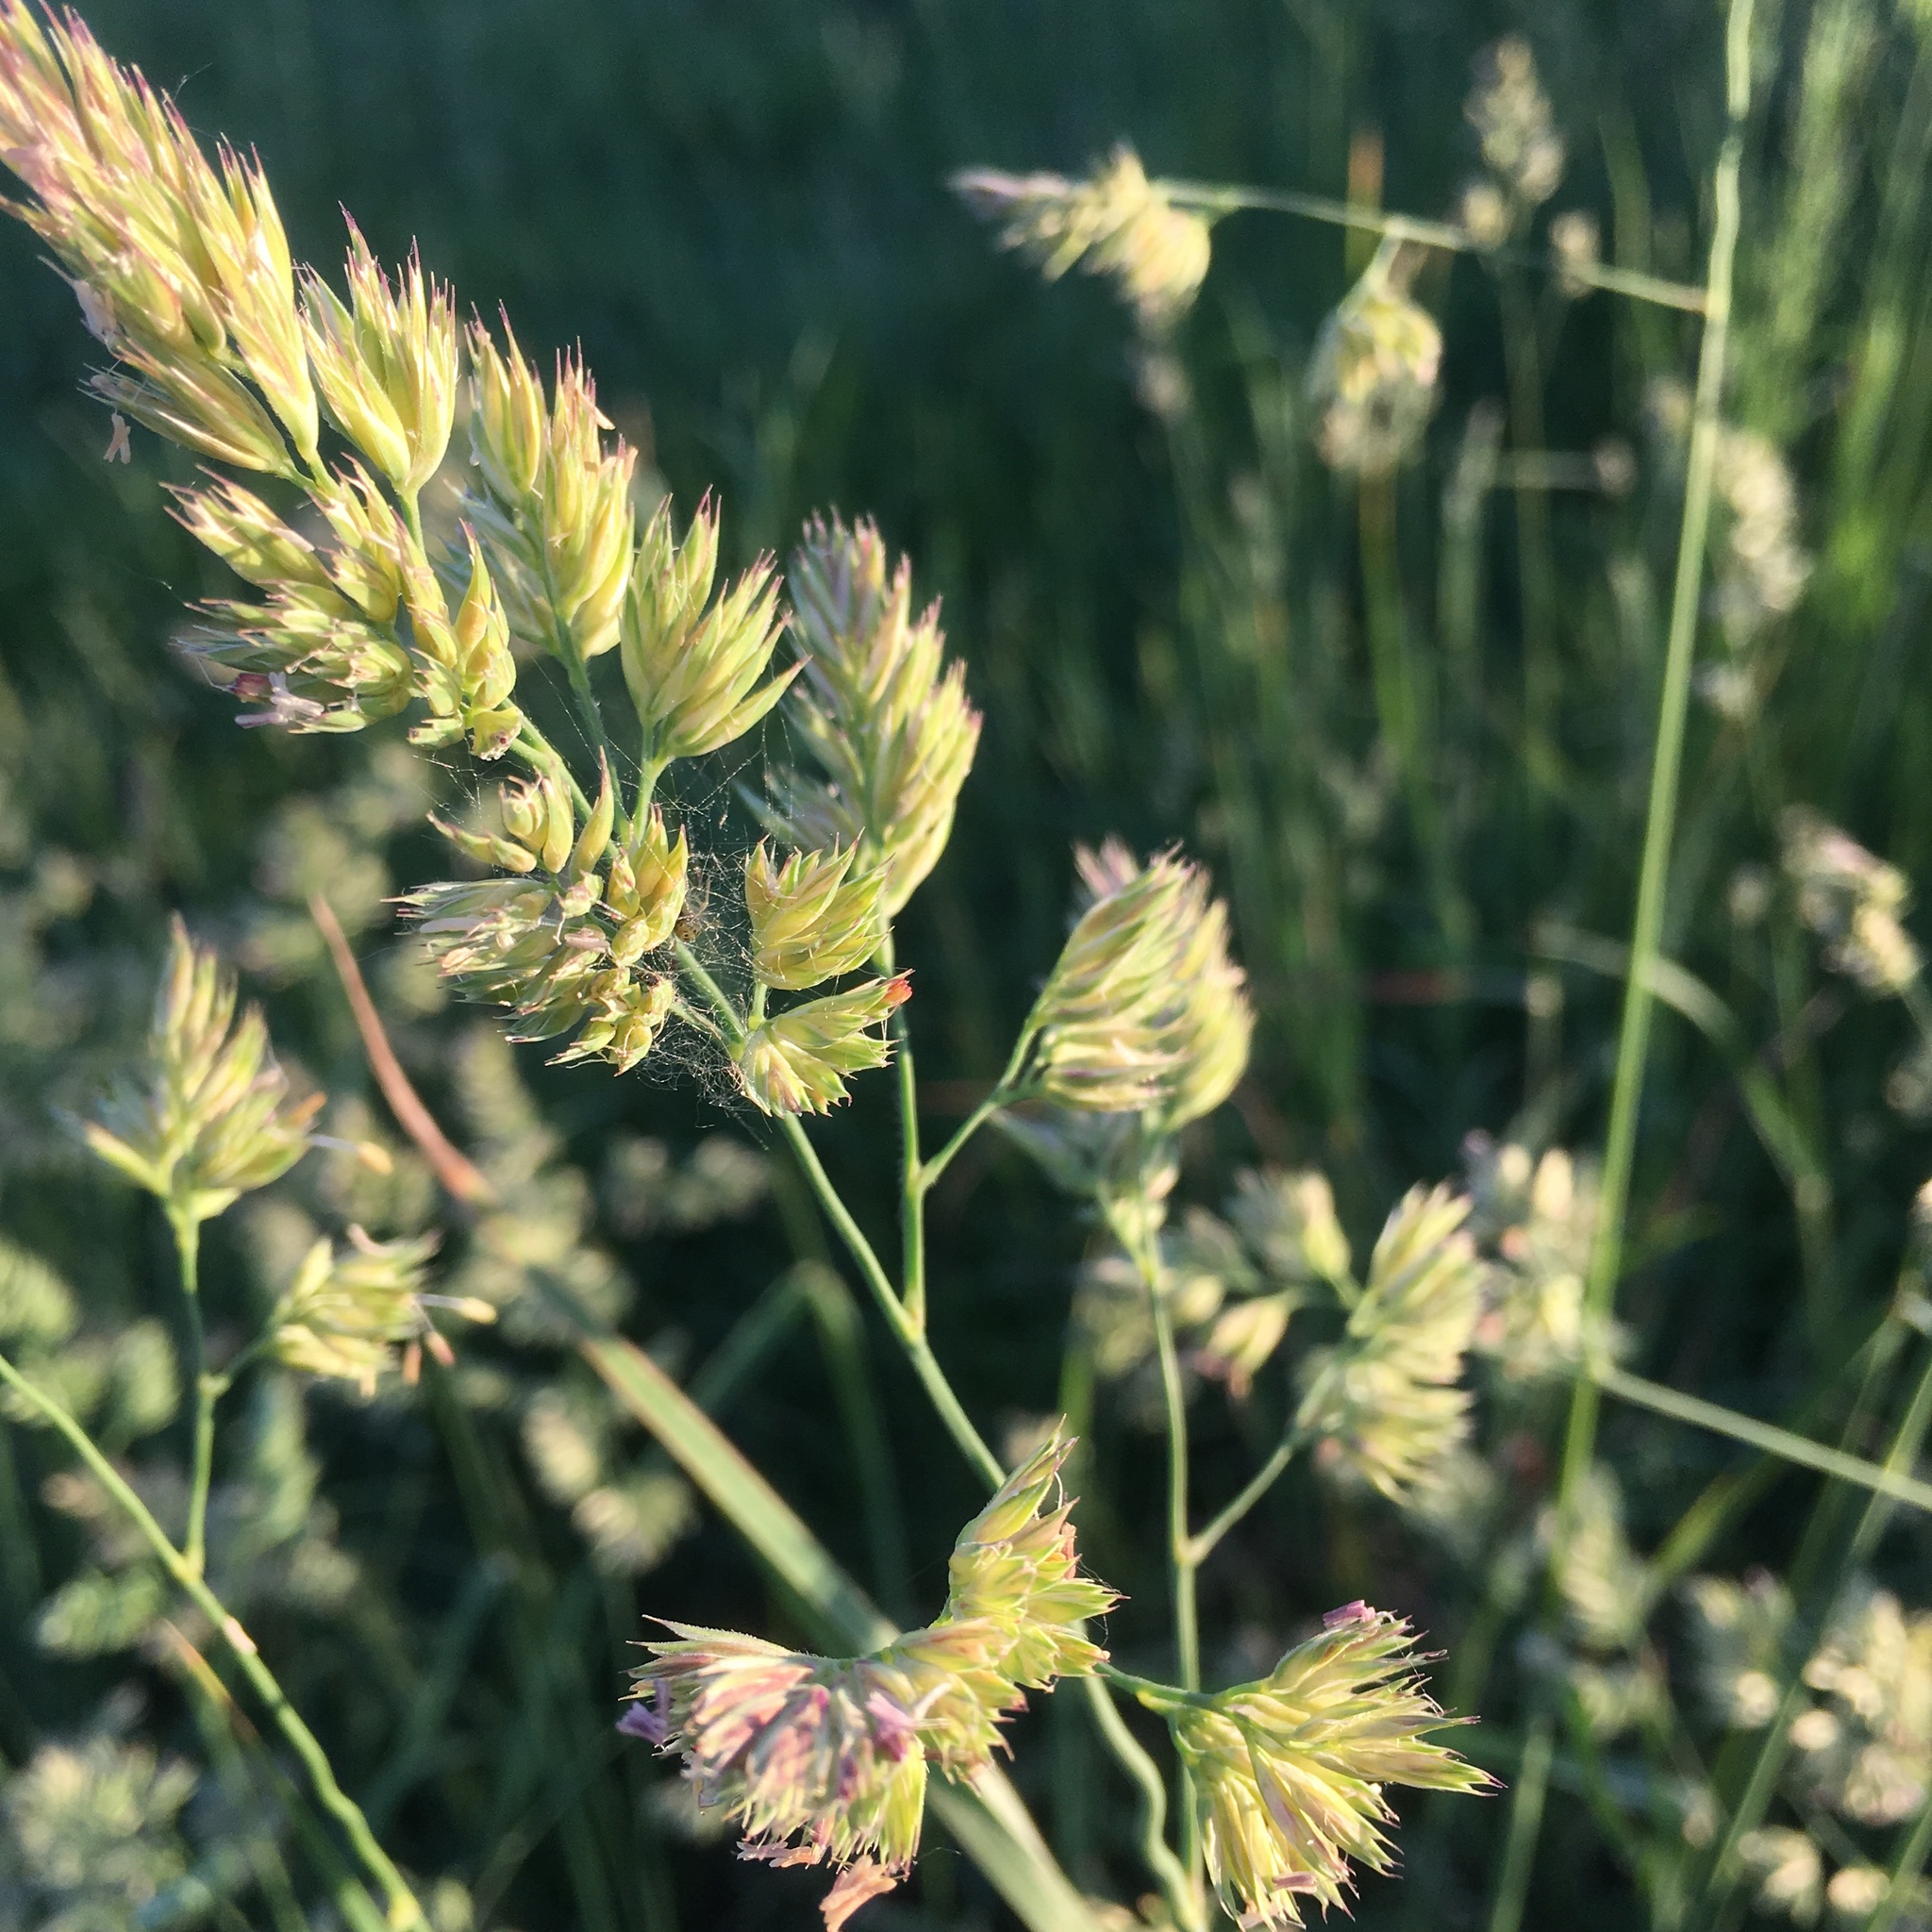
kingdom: Plantae
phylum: Tracheophyta
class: Liliopsida
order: Poales
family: Poaceae
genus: Dactylis
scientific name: Dactylis glomerata
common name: Orchardgrass
